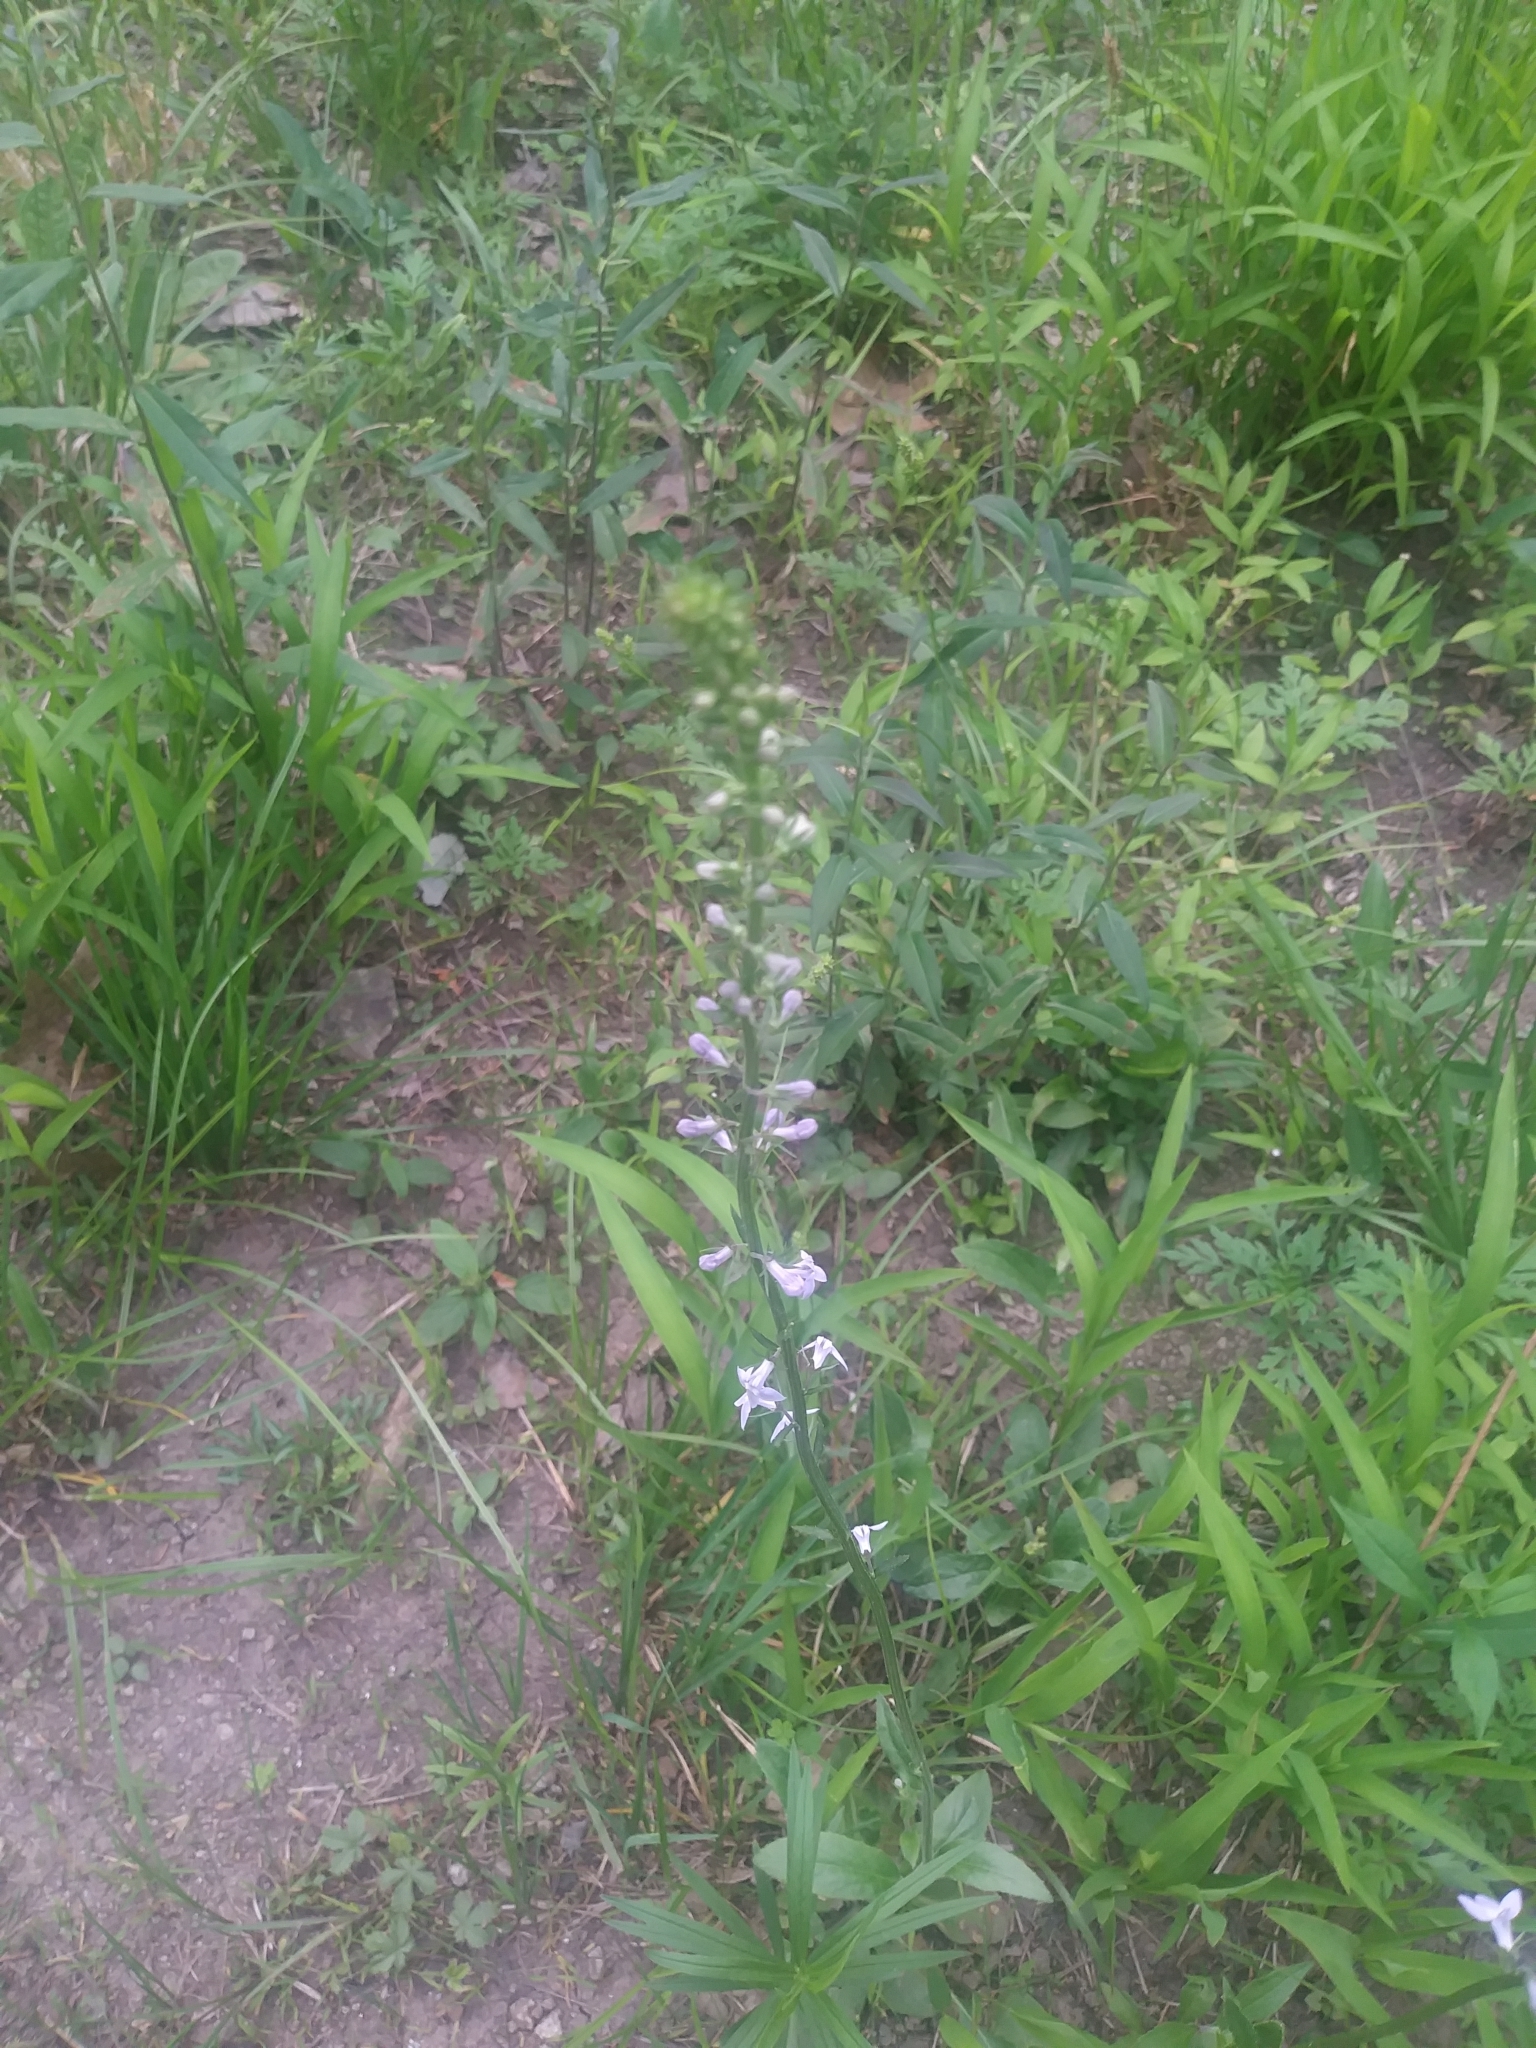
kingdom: Plantae
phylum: Tracheophyta
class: Magnoliopsida
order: Asterales
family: Campanulaceae
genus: Lobelia
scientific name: Lobelia spicata
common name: Pale-spike lobelia
